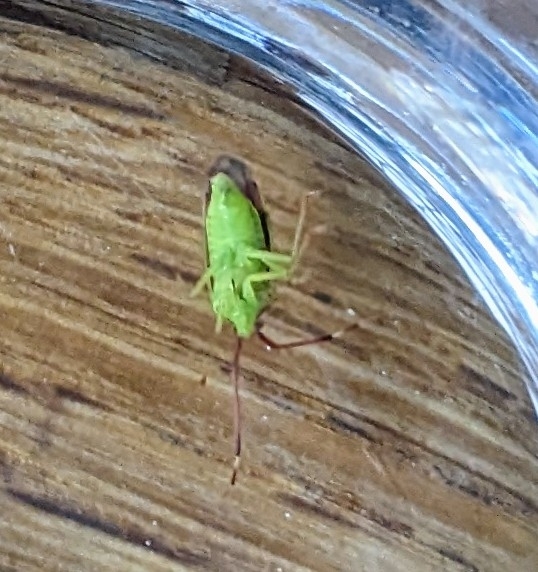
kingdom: Animalia
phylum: Arthropoda
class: Insecta
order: Hemiptera
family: Miridae
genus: Pantilius
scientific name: Pantilius tunicatus
